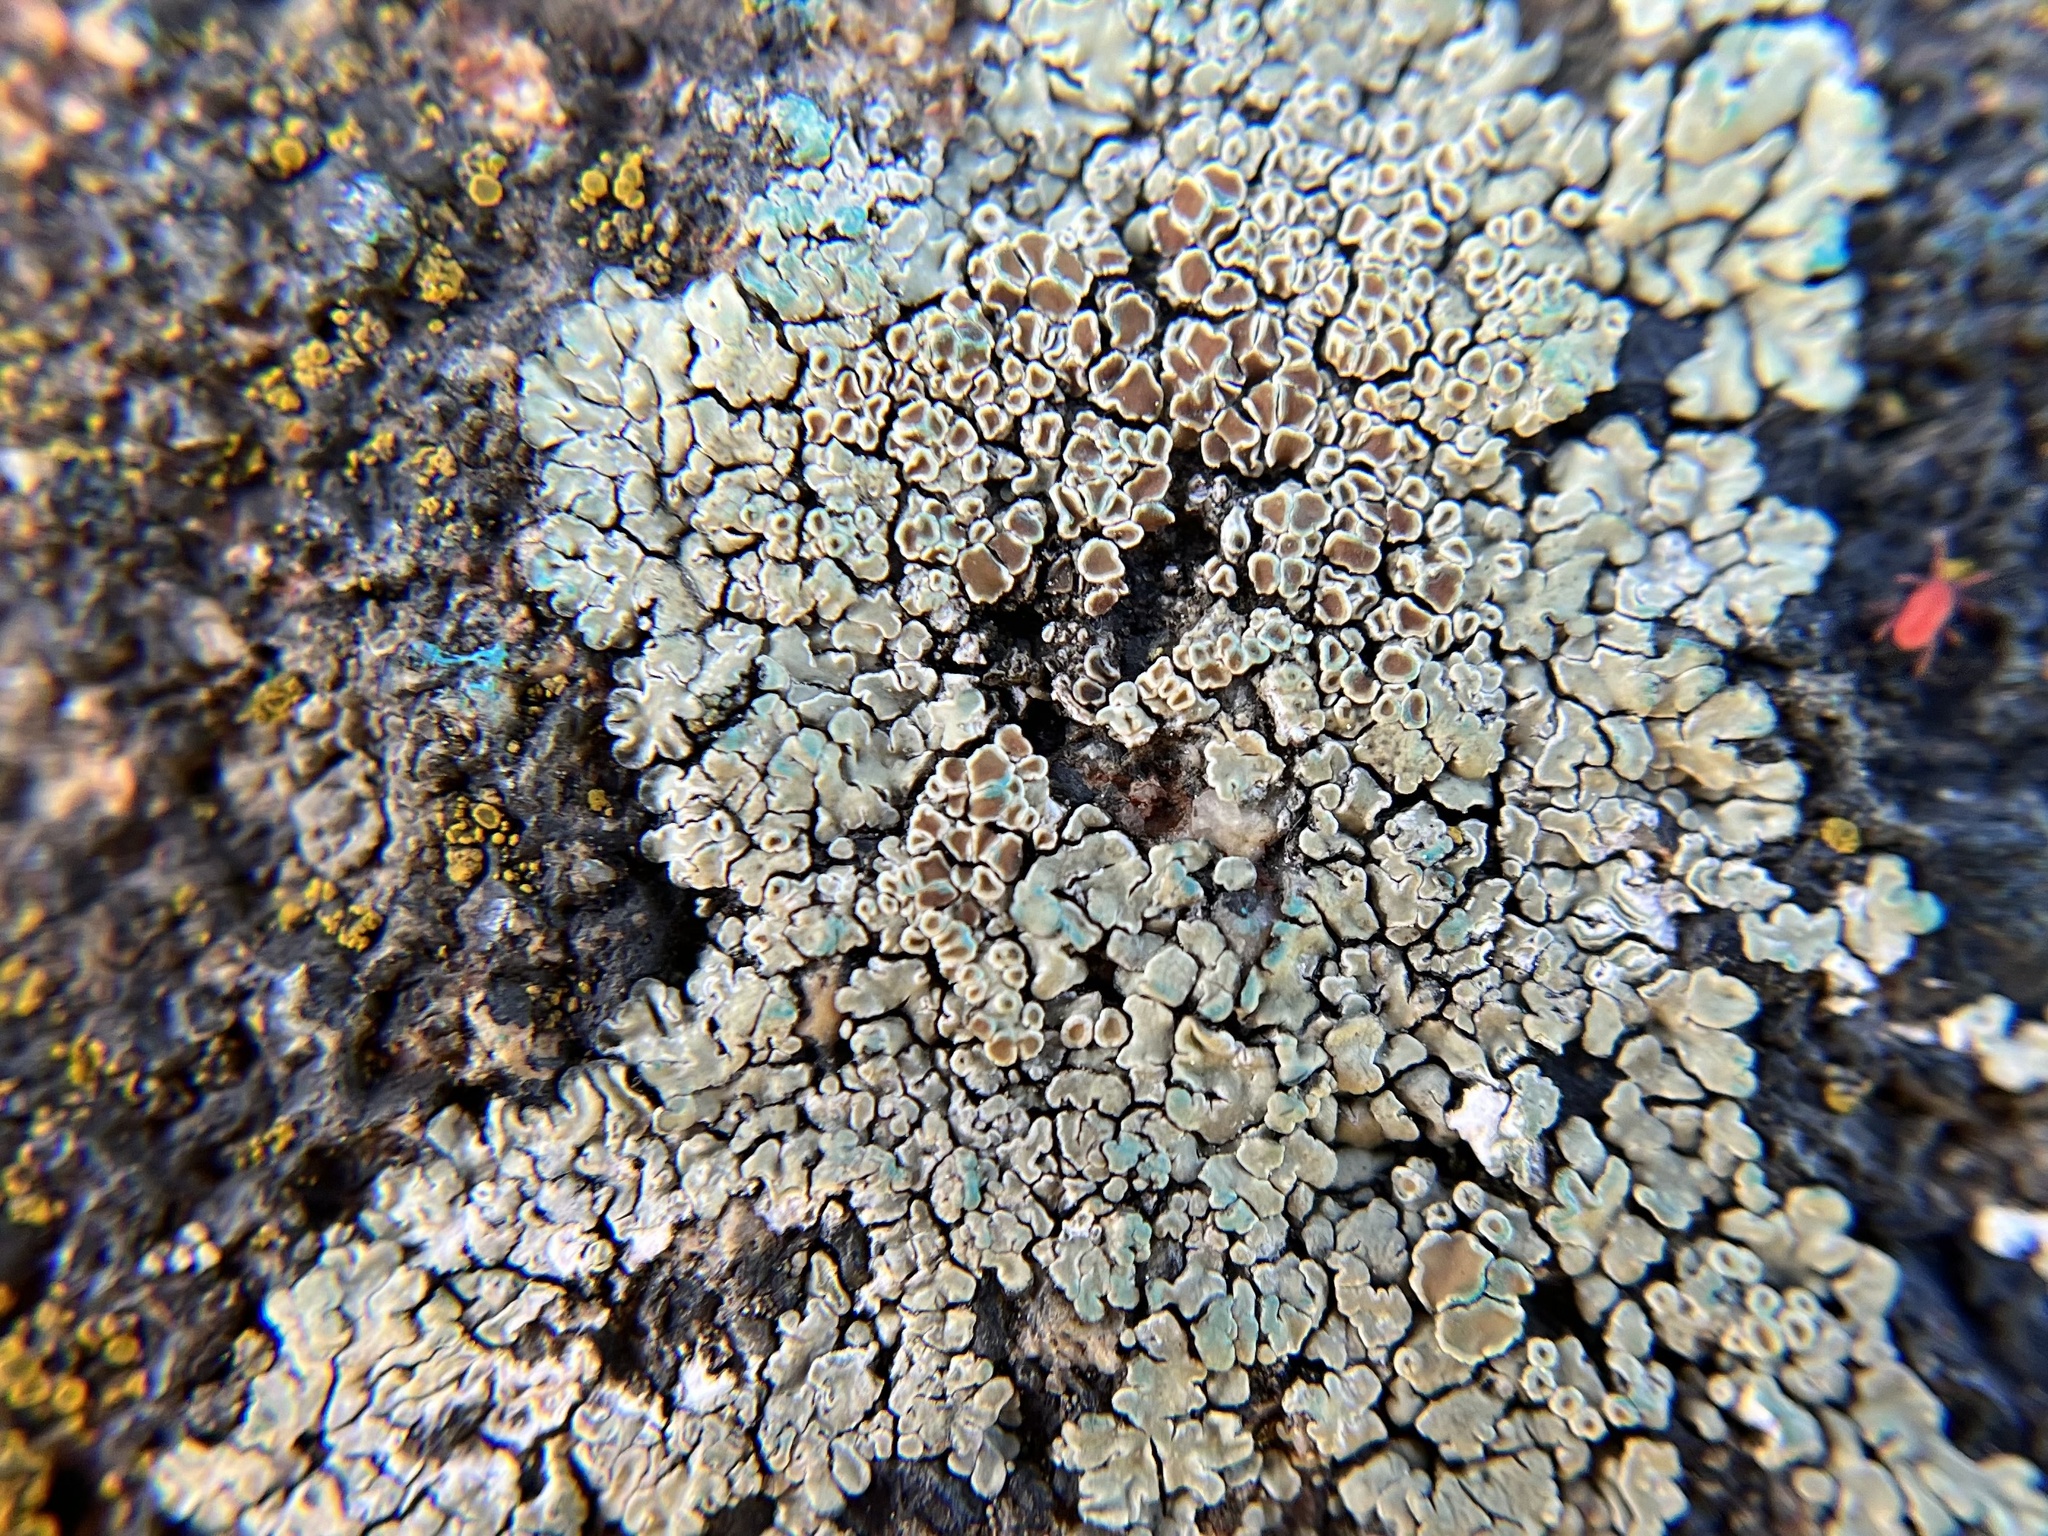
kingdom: Fungi
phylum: Ascomycota
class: Lecanoromycetes
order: Lecanorales
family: Lecanoraceae
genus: Protoparmeliopsis
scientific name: Protoparmeliopsis muralis
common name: Stonewall rim lichen
